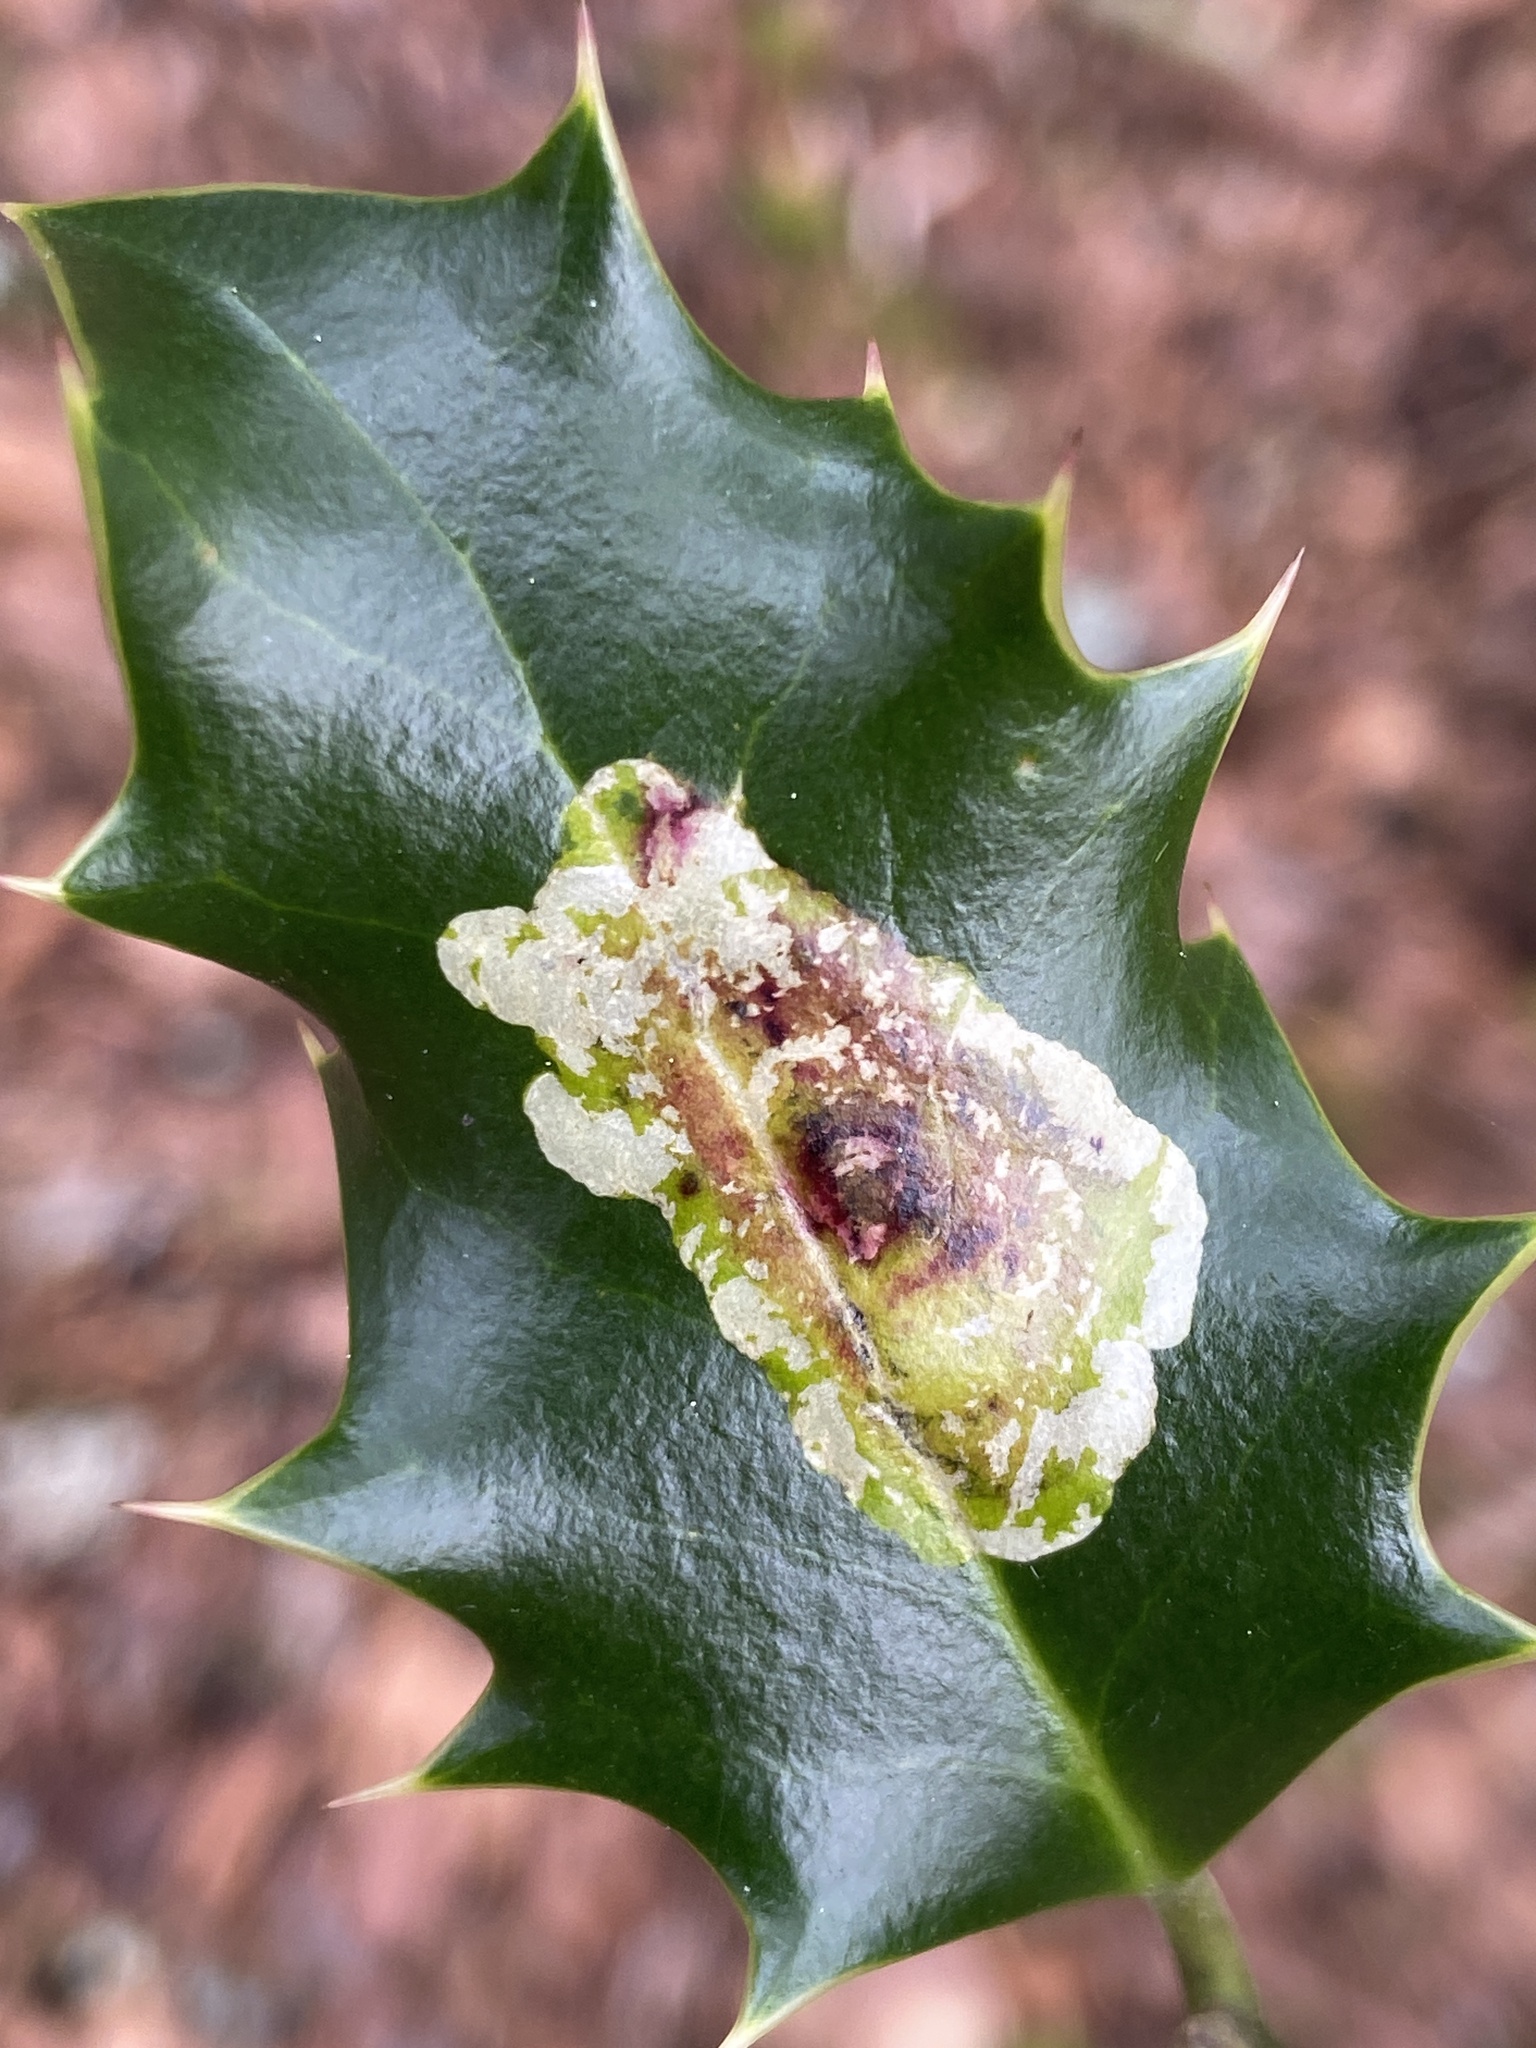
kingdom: Animalia
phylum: Arthropoda
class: Insecta
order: Diptera
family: Agromyzidae
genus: Phytomyza
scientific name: Phytomyza ilicis
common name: Holly leafminer
